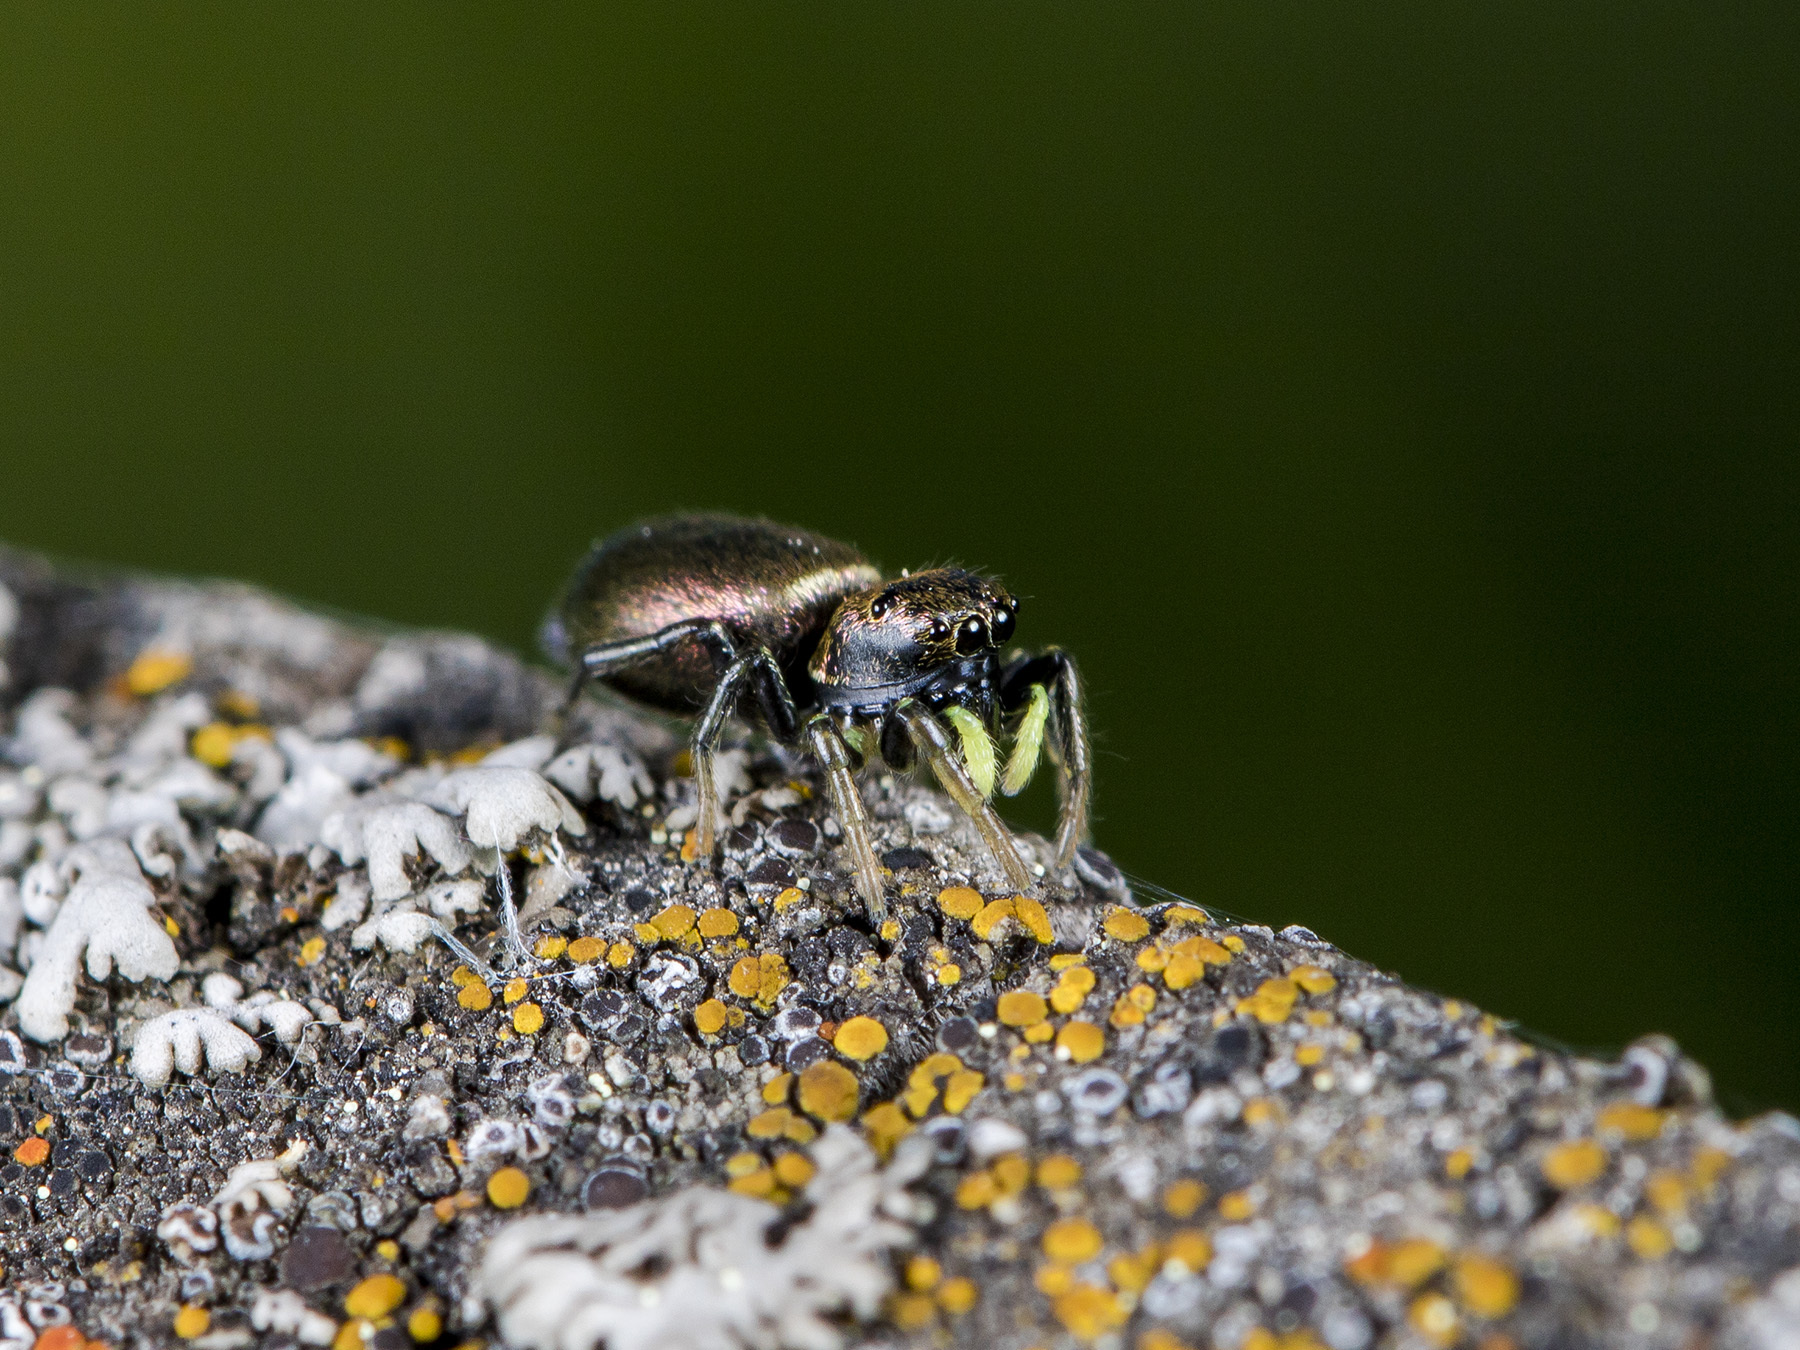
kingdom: Animalia
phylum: Arthropoda
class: Arachnida
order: Araneae
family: Salticidae
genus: Heliophanus
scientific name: Heliophanus auratus
